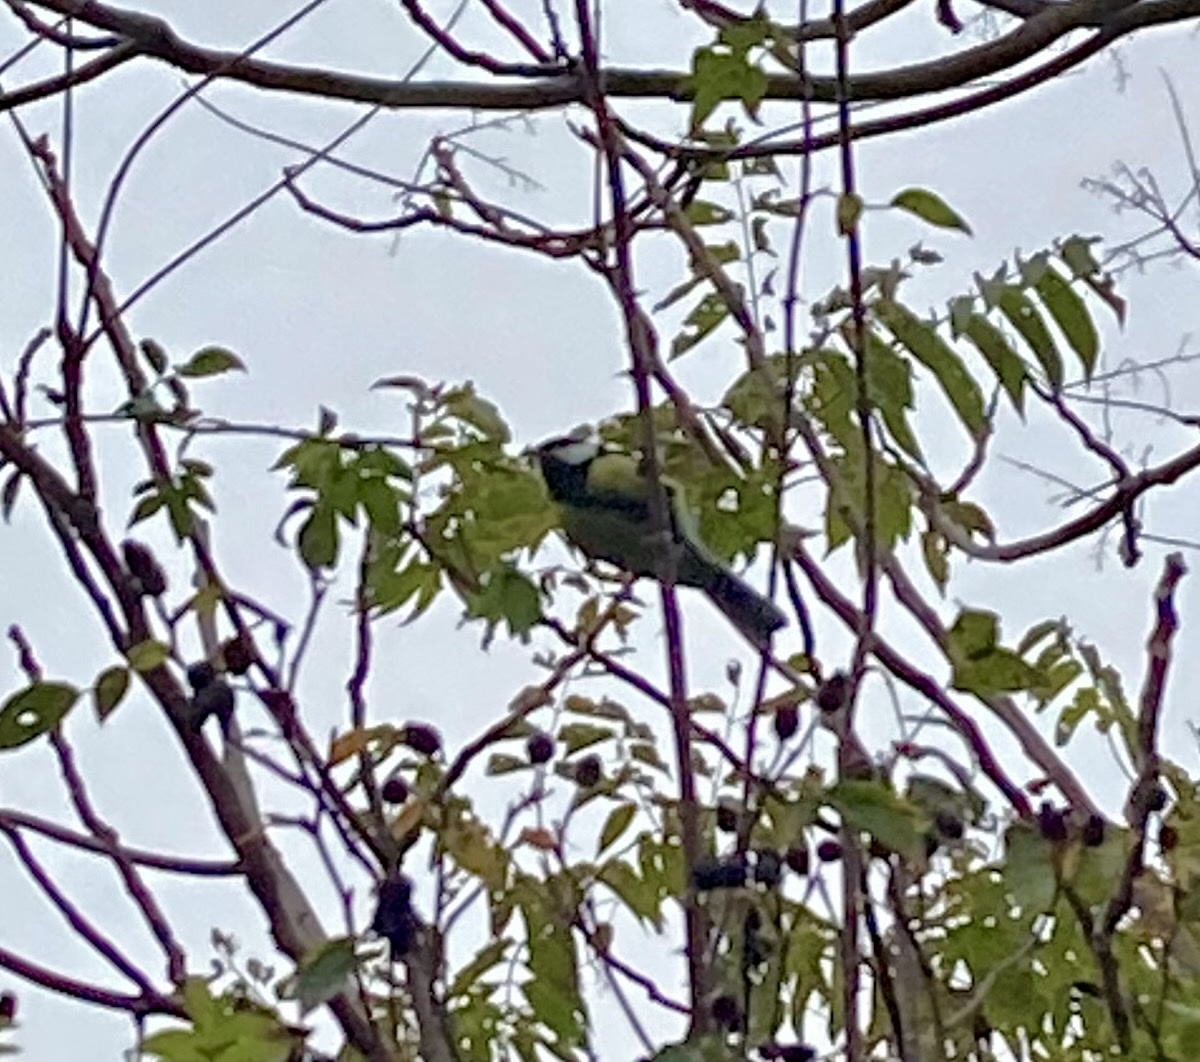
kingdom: Animalia
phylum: Chordata
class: Aves
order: Passeriformes
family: Paridae
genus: Parus
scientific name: Parus major
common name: Great tit
